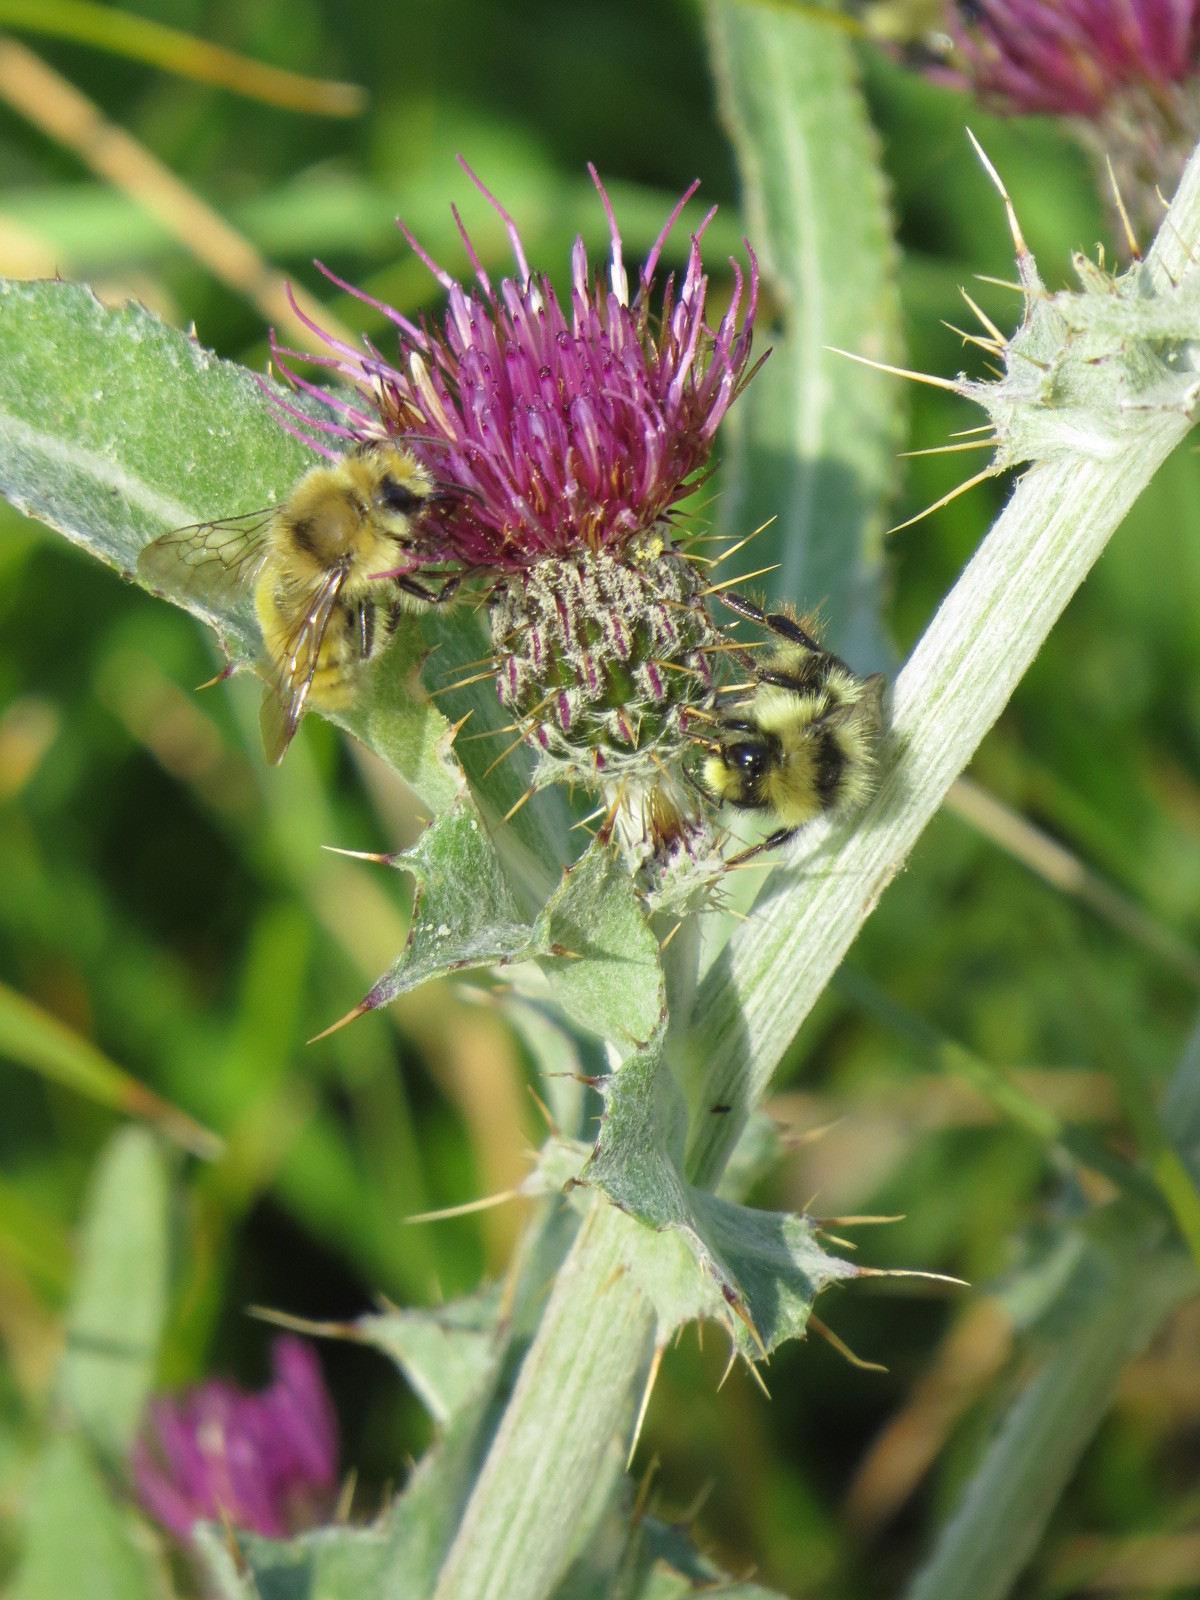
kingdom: Animalia
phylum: Arthropoda
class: Insecta
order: Hymenoptera
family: Apidae
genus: Bombus
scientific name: Bombus vandykei
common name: Van dyke bumble bee
